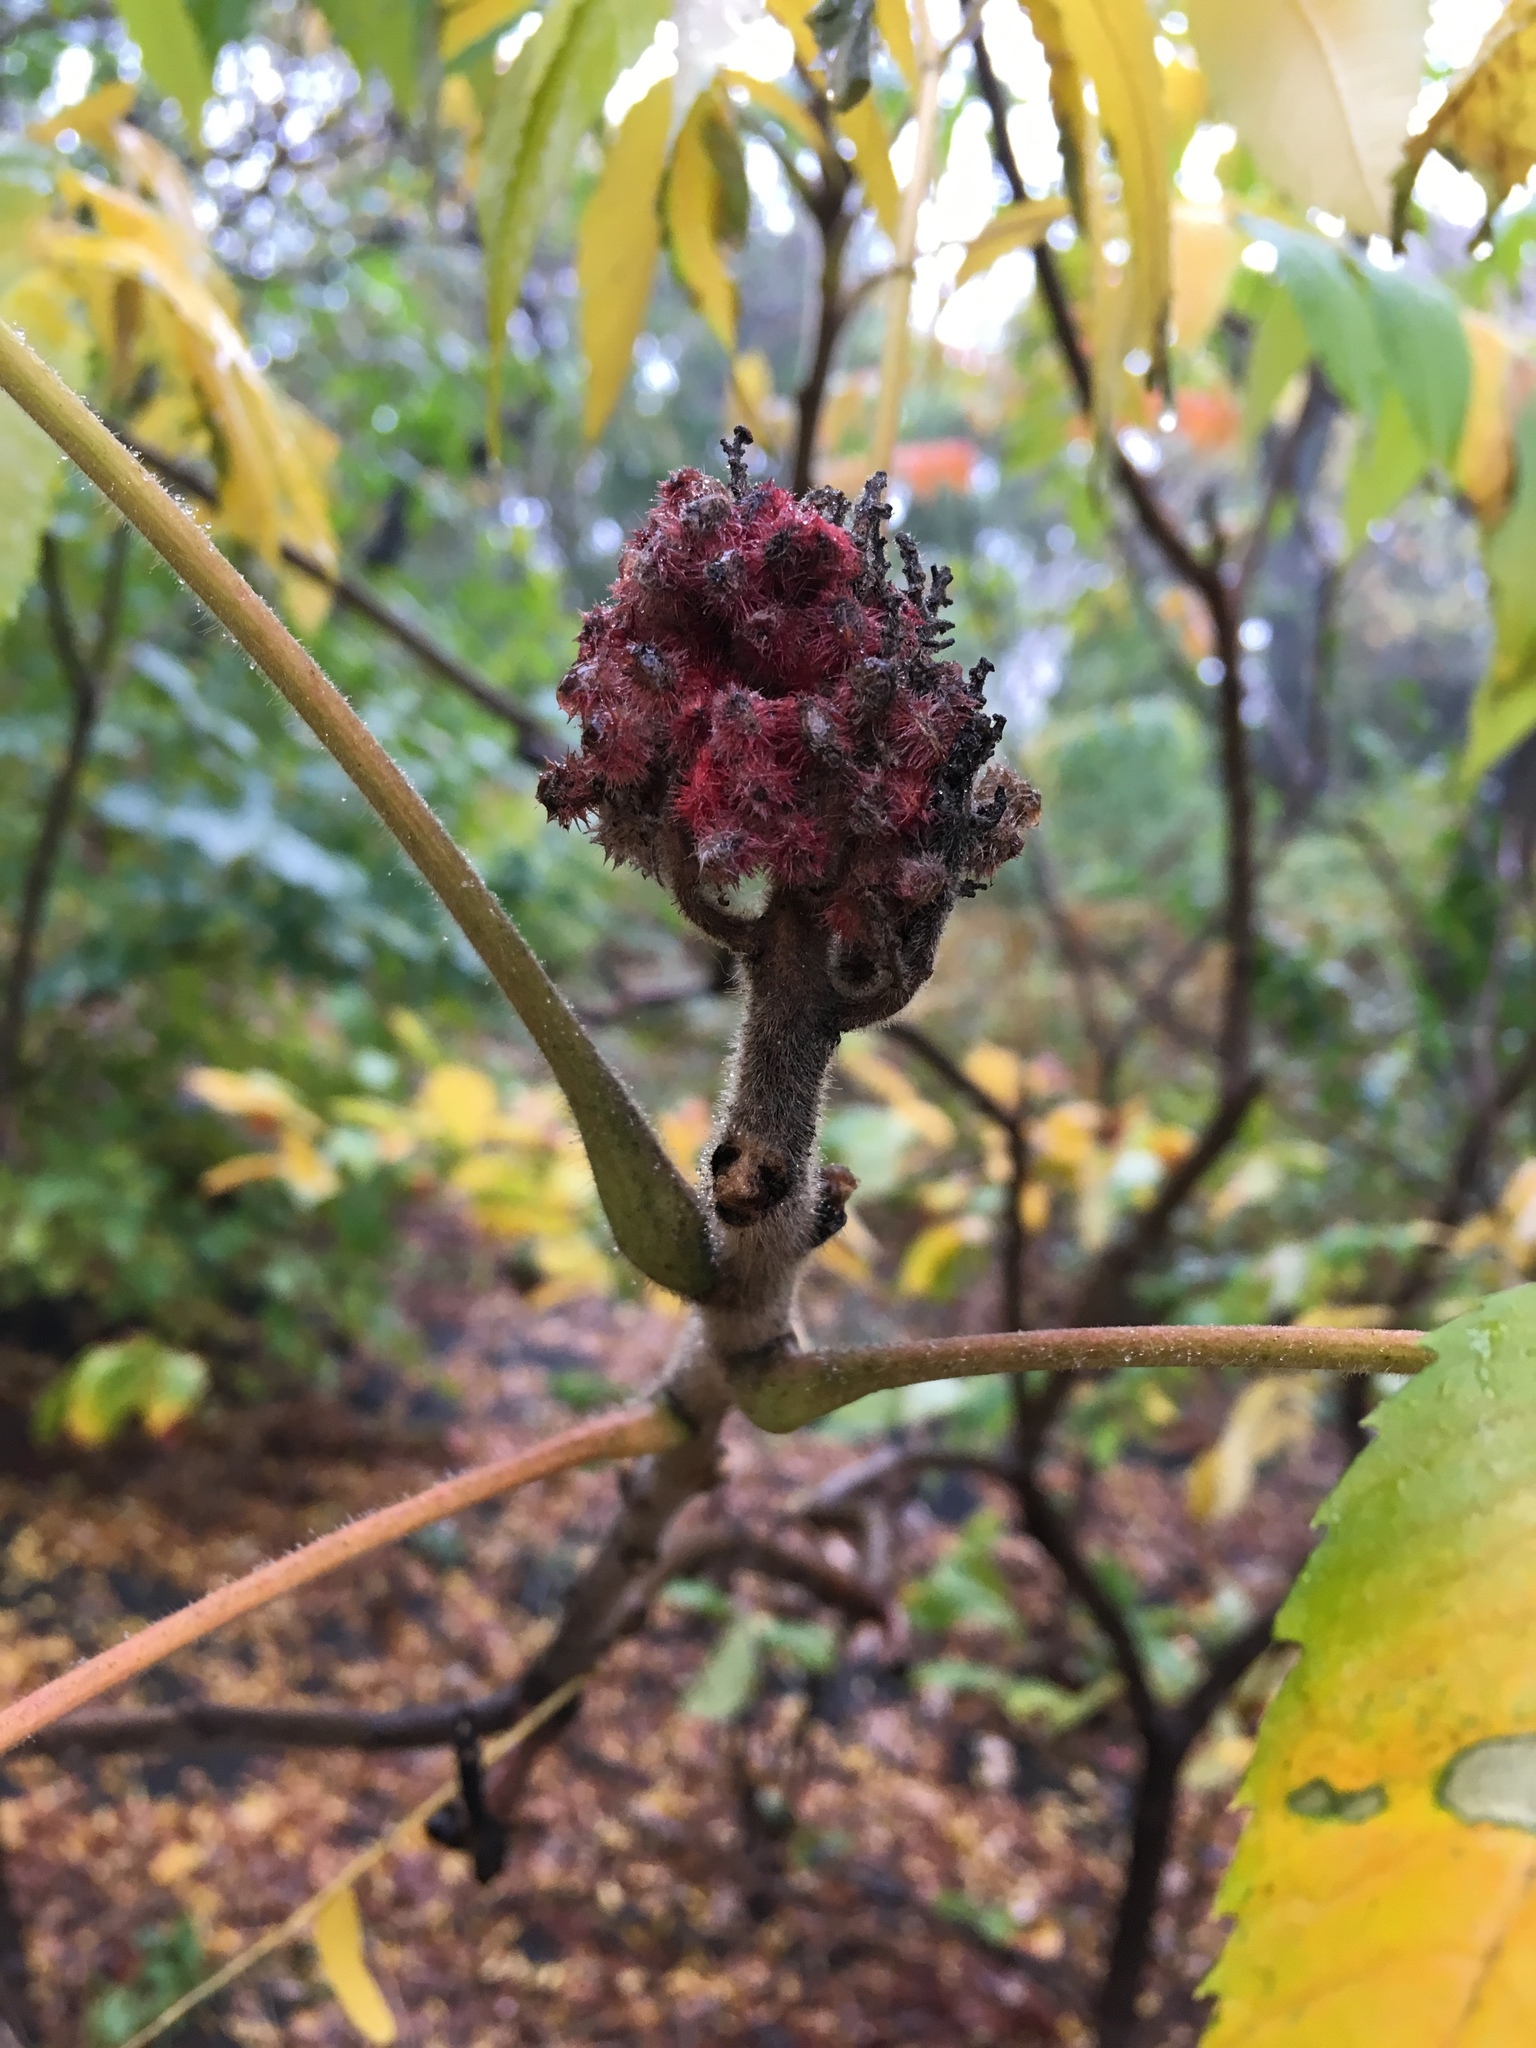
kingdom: Plantae
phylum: Tracheophyta
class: Magnoliopsida
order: Sapindales
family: Anacardiaceae
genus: Rhus
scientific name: Rhus typhina
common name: Staghorn sumac
